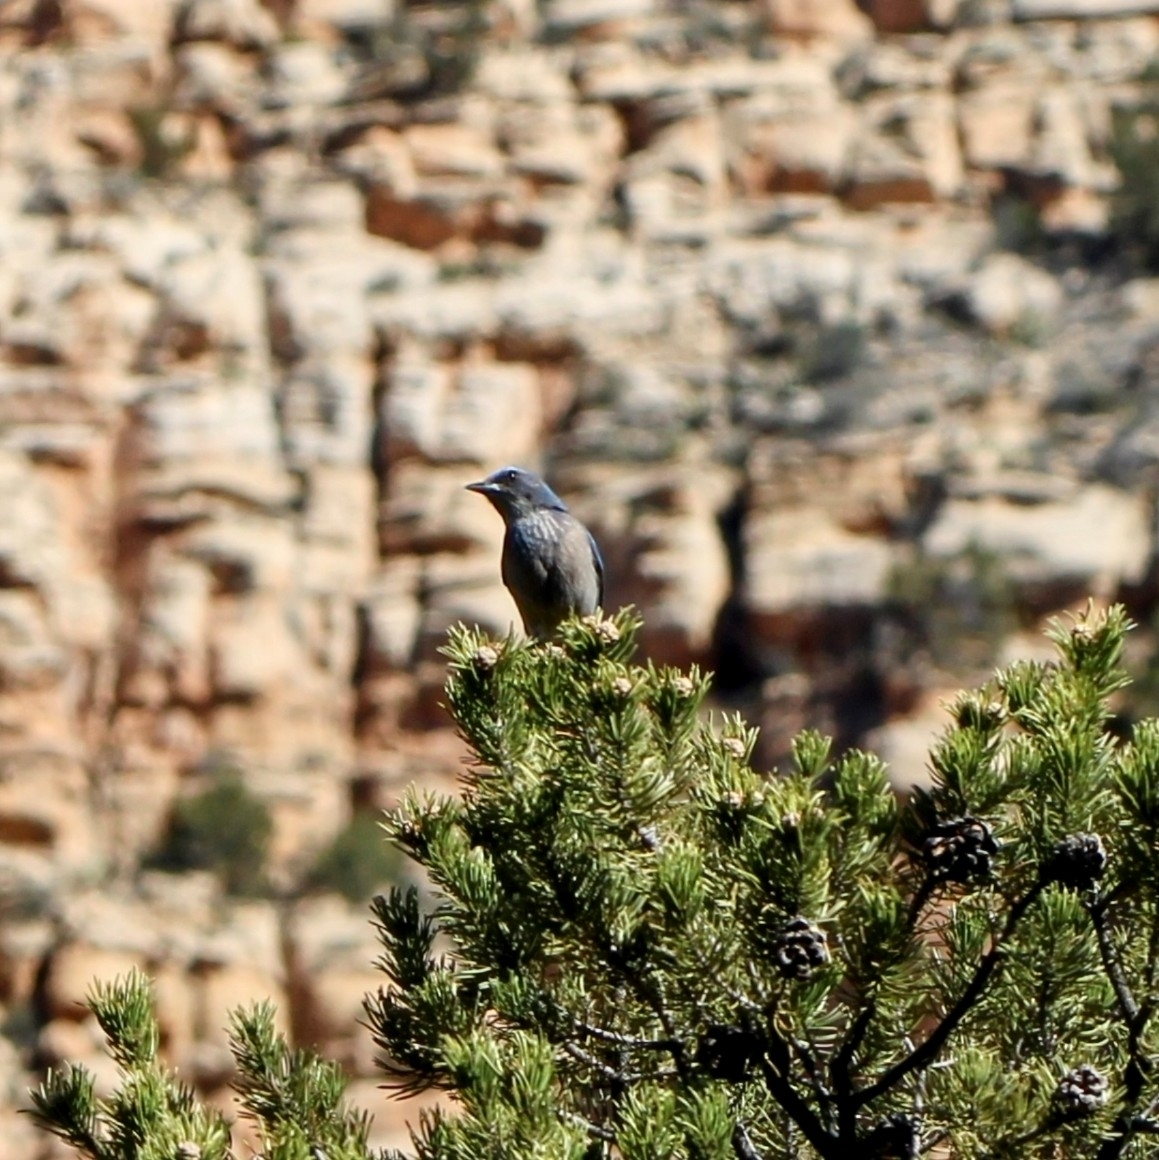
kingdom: Animalia
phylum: Chordata
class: Aves
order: Passeriformes
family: Corvidae
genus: Aphelocoma
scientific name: Aphelocoma woodhouseii
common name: Woodhouse's scrub-jay
